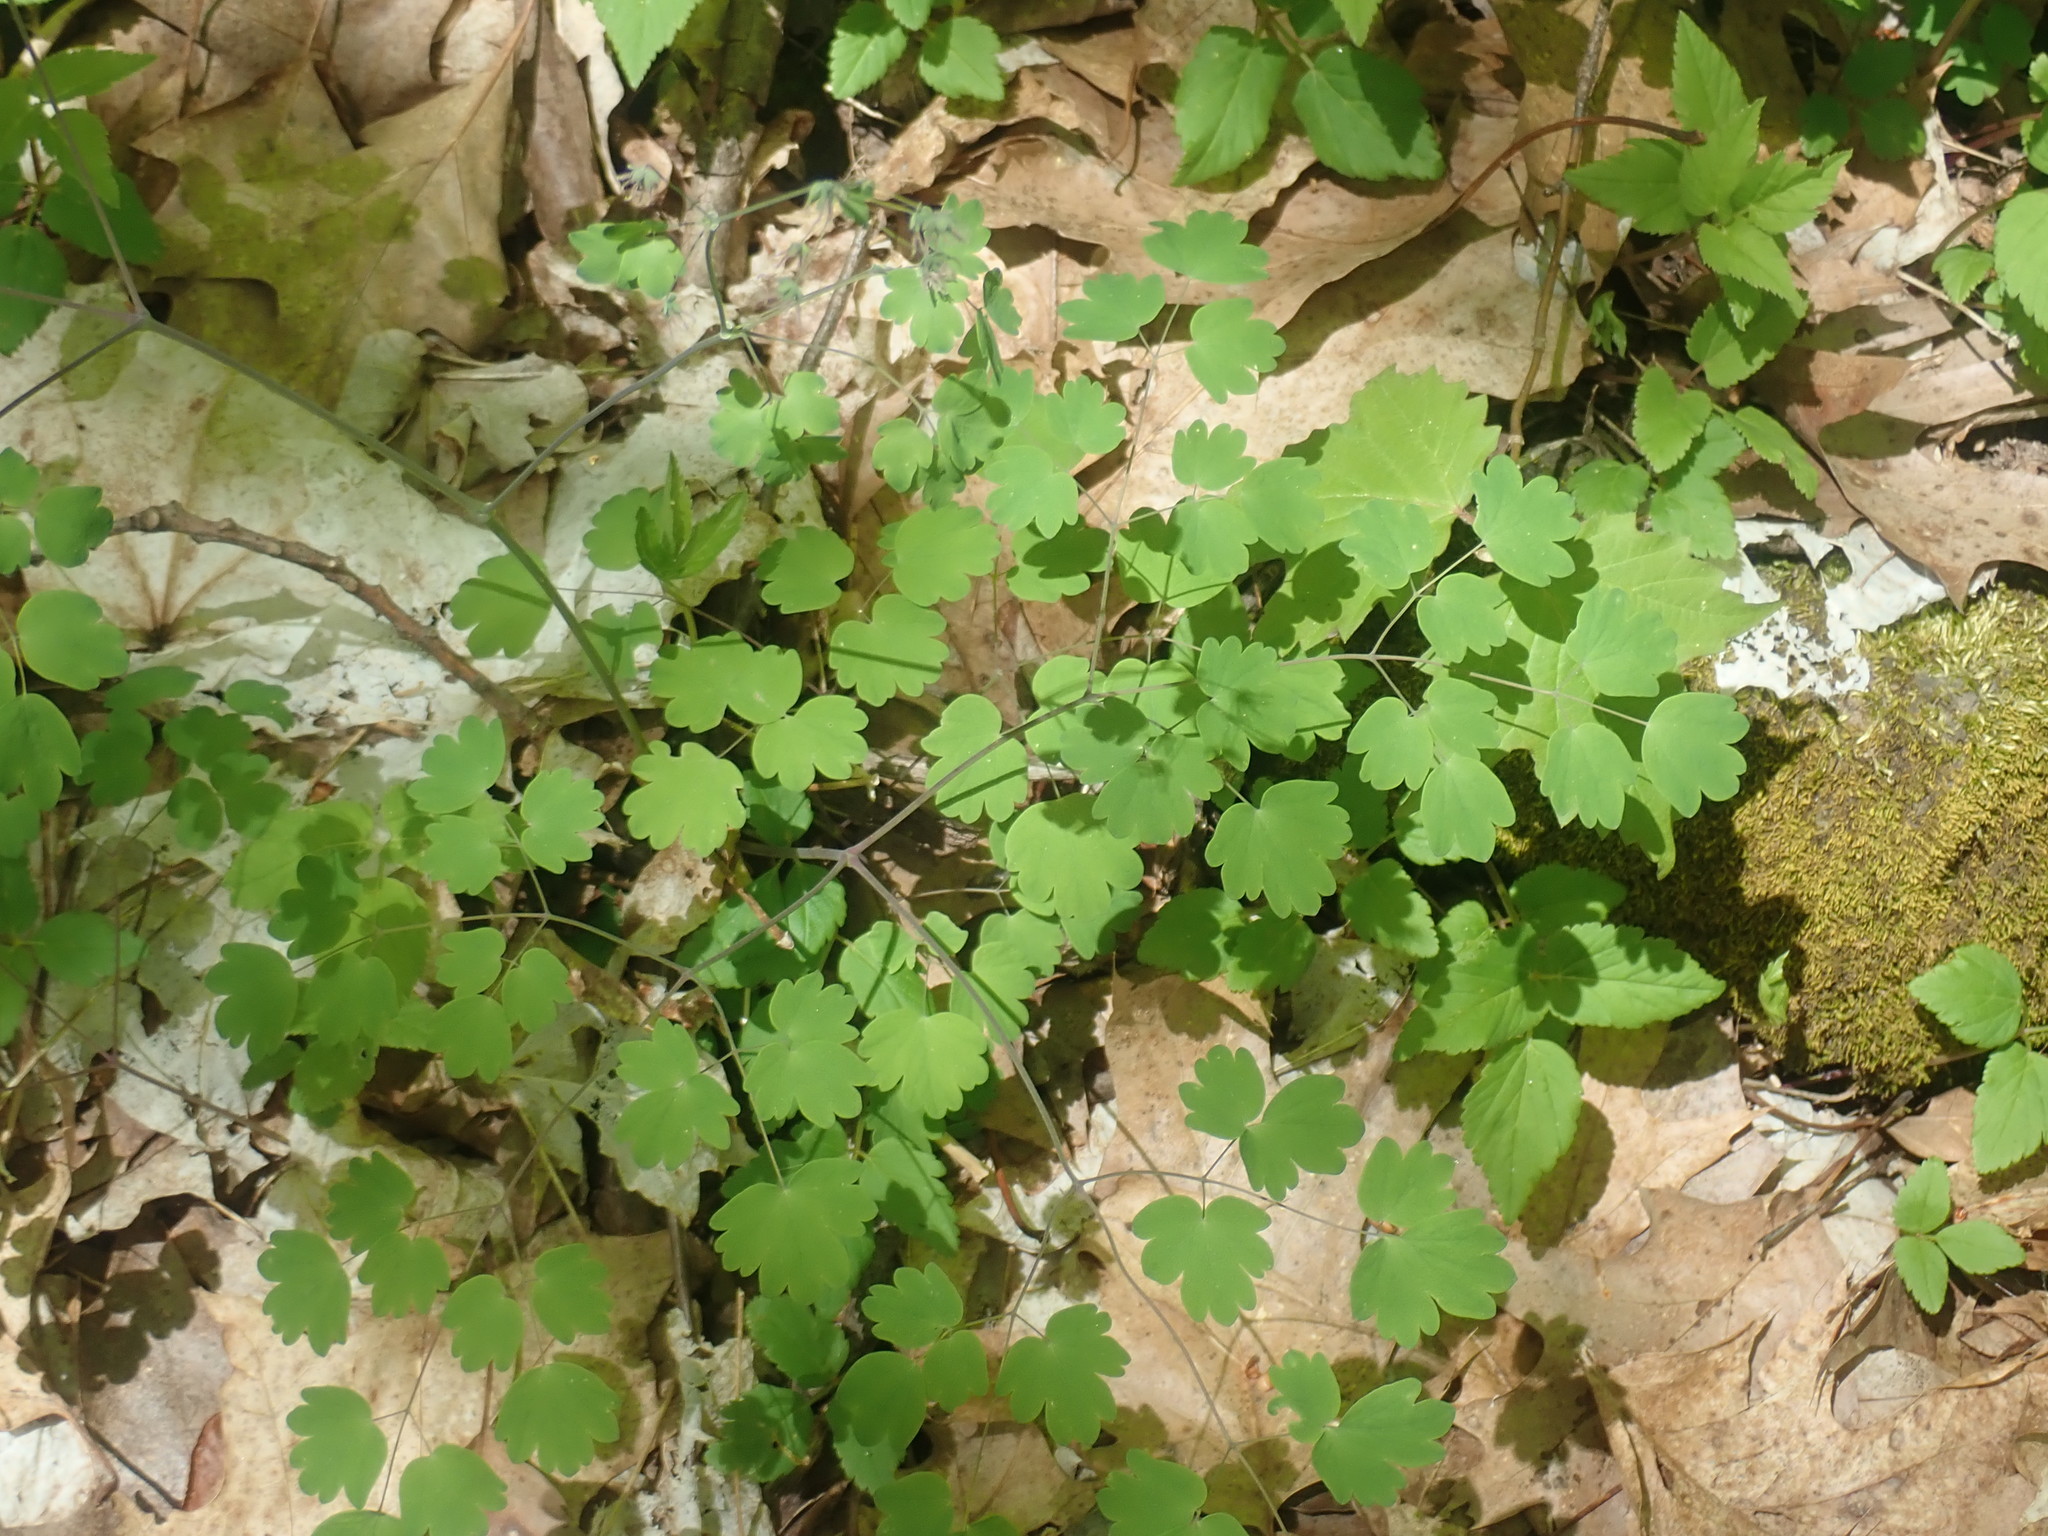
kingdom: Plantae
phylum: Tracheophyta
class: Magnoliopsida
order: Ranunculales
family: Ranunculaceae
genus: Thalictrum
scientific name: Thalictrum dioicum
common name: Early meadow-rue
